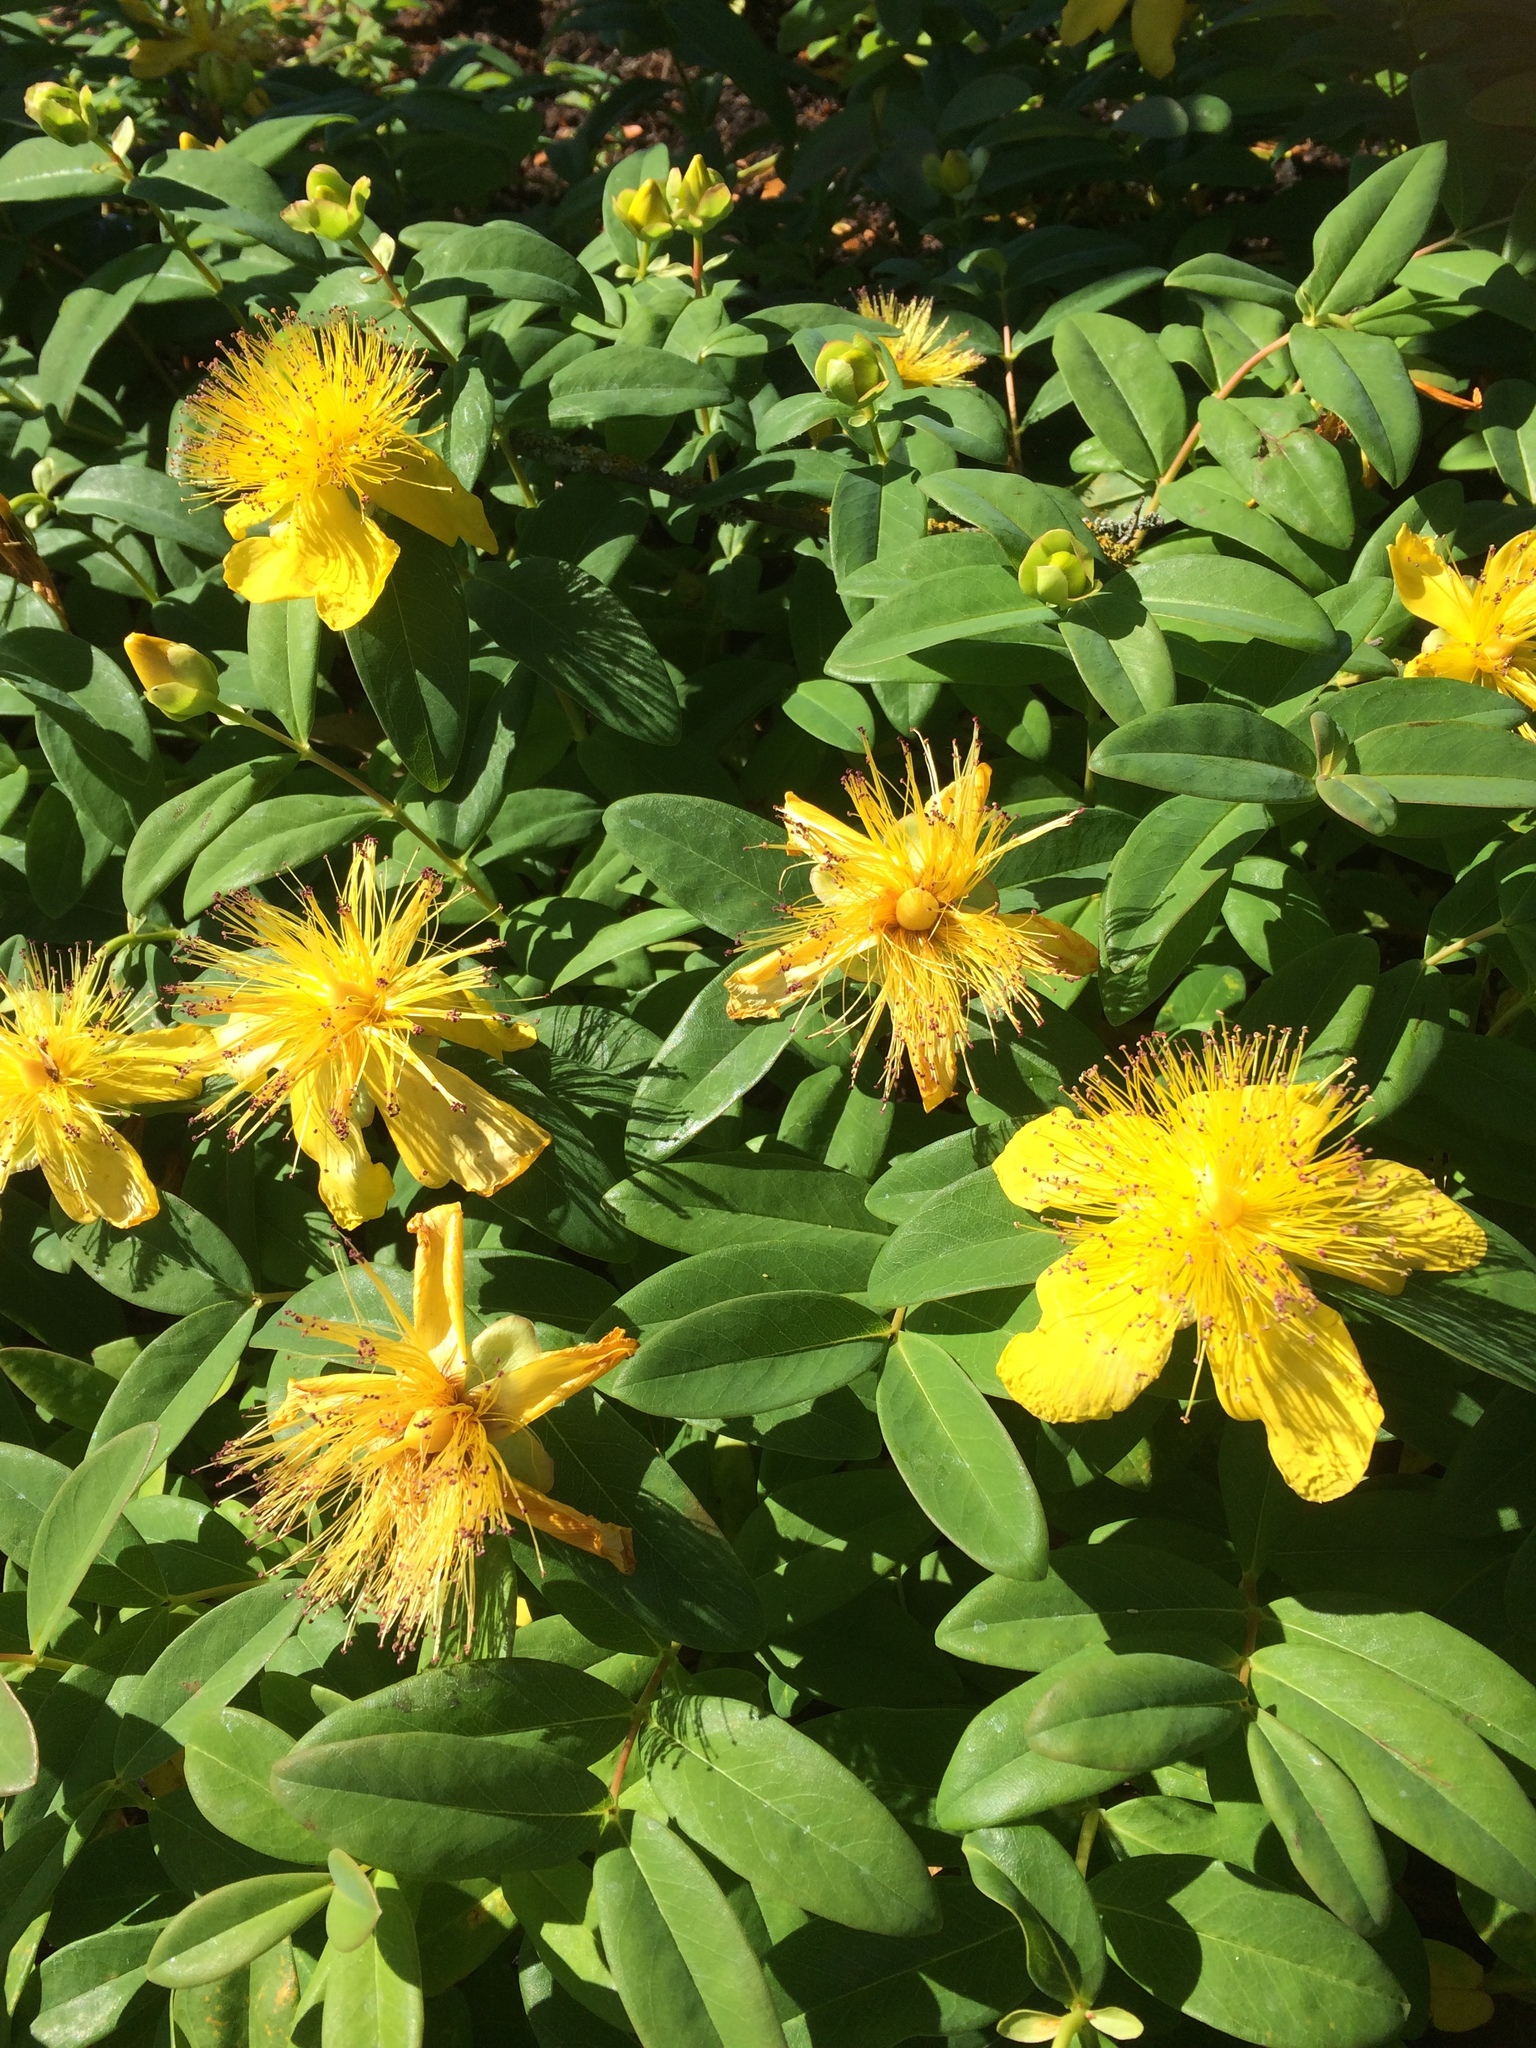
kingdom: Plantae
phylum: Tracheophyta
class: Magnoliopsida
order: Malpighiales
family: Hypericaceae
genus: Hypericum
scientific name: Hypericum calycinum
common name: Rose-of-sharon
